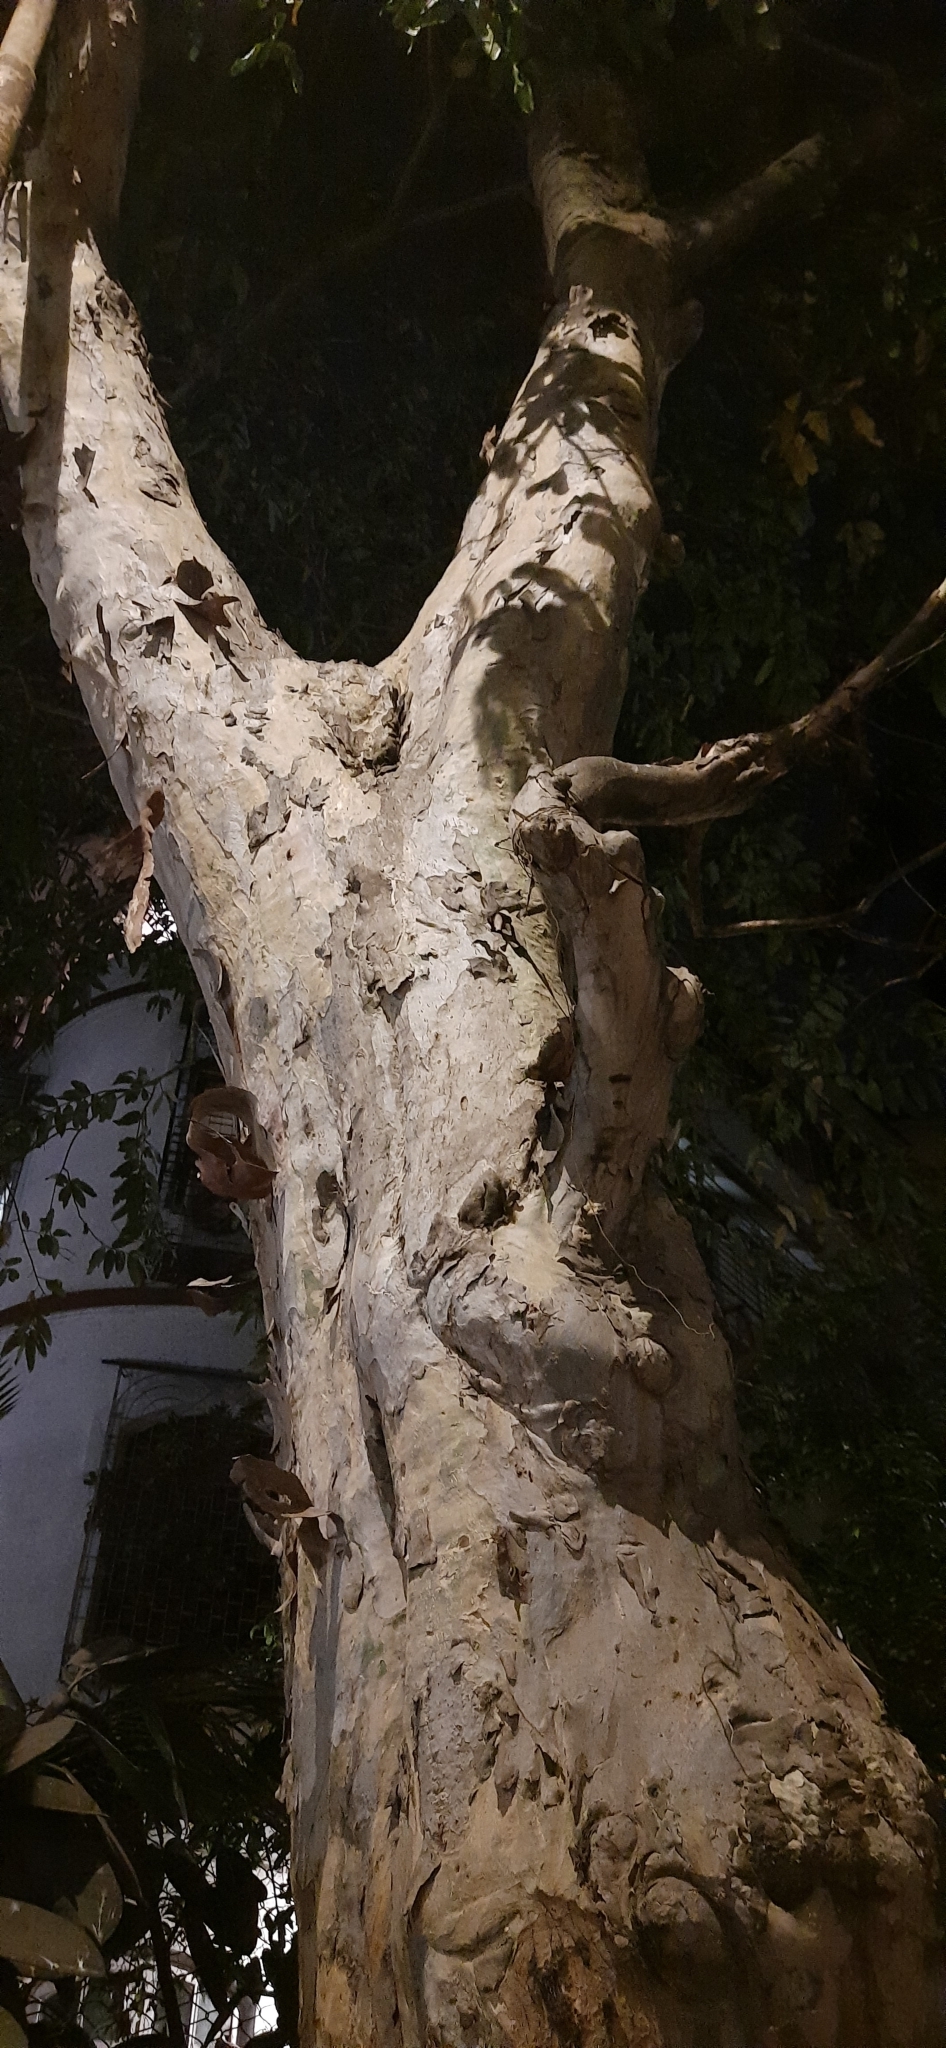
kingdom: Plantae
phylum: Tracheophyta
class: Magnoliopsida
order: Myrtales
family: Combretaceae
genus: Terminalia
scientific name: Terminalia arjuna
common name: Arjun
